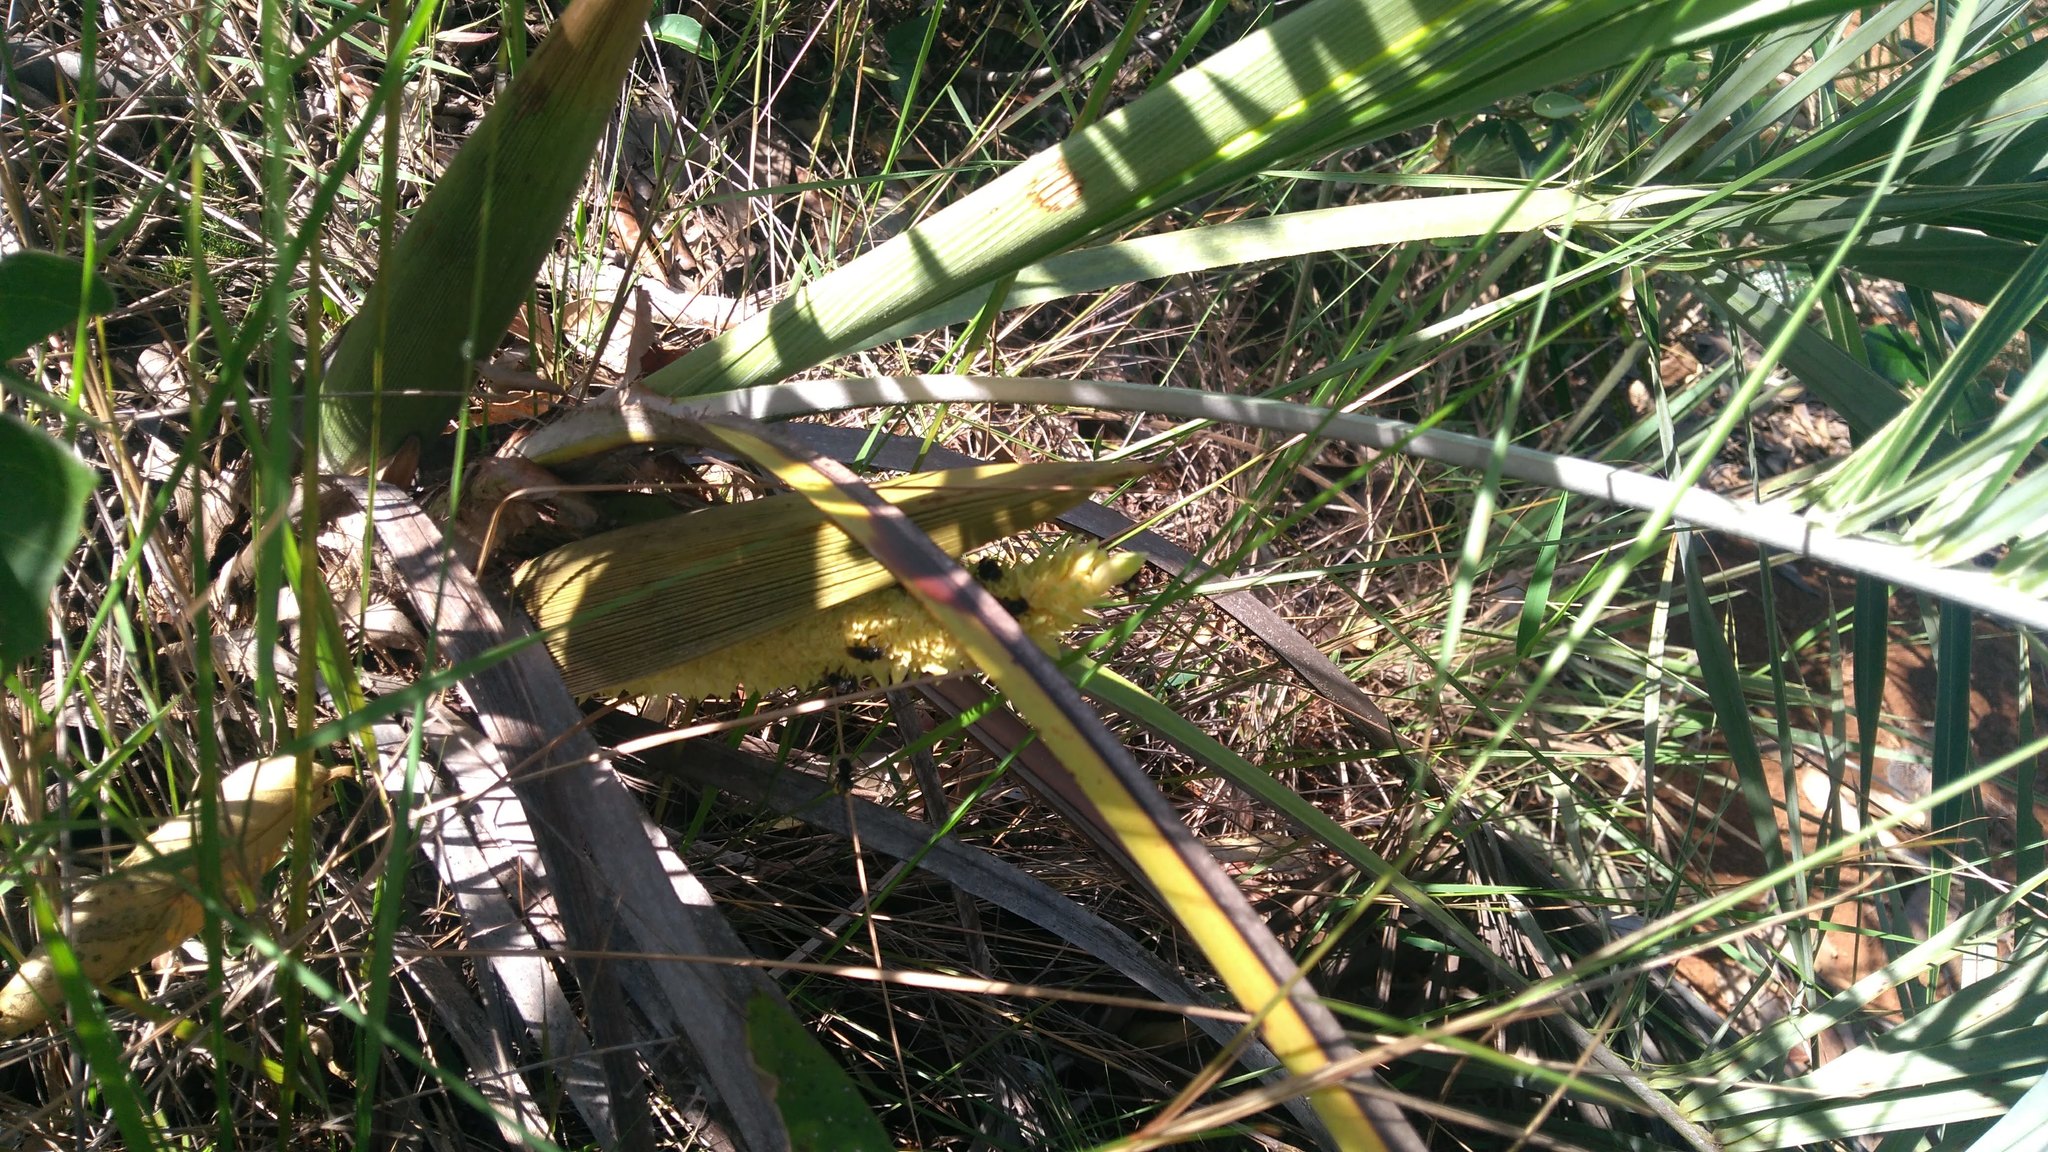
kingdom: Plantae
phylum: Tracheophyta
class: Liliopsida
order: Arecales
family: Arecaceae
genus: Allagoptera
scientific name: Allagoptera robusta
